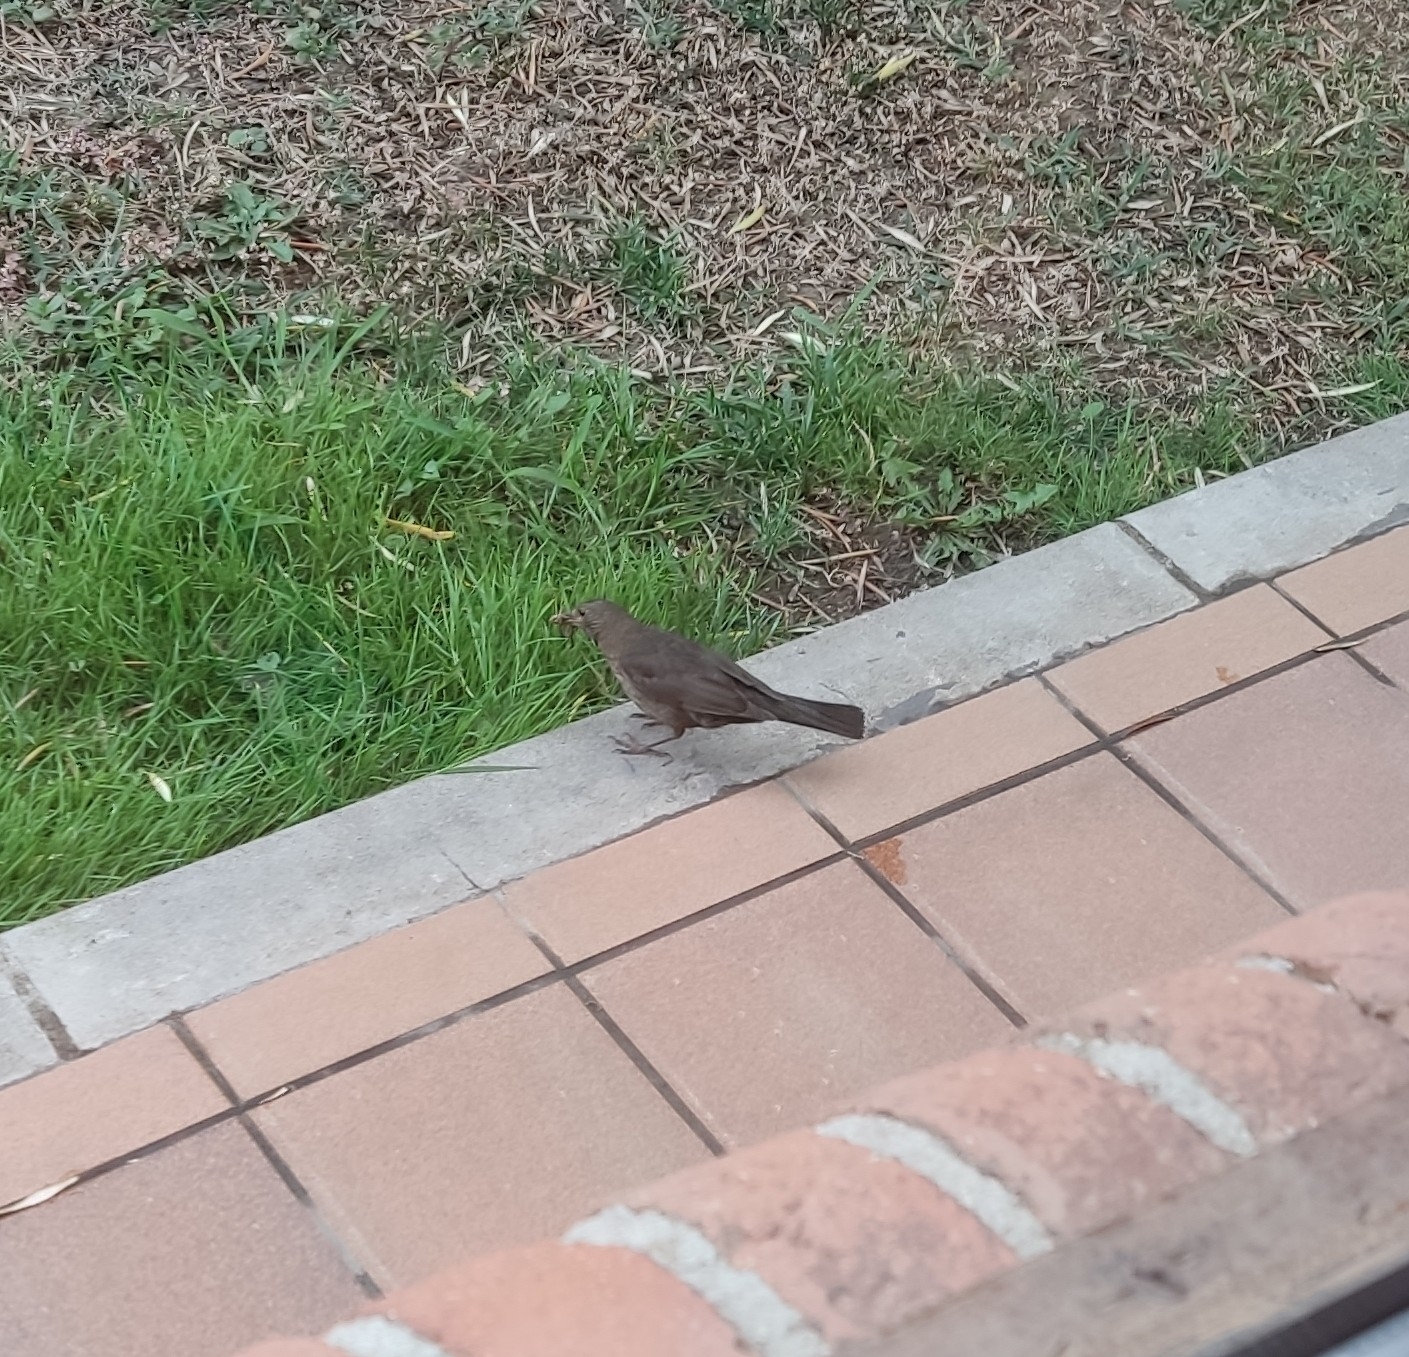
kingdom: Animalia
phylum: Chordata
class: Aves
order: Passeriformes
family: Turdidae
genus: Turdus
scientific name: Turdus merula
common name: Common blackbird
